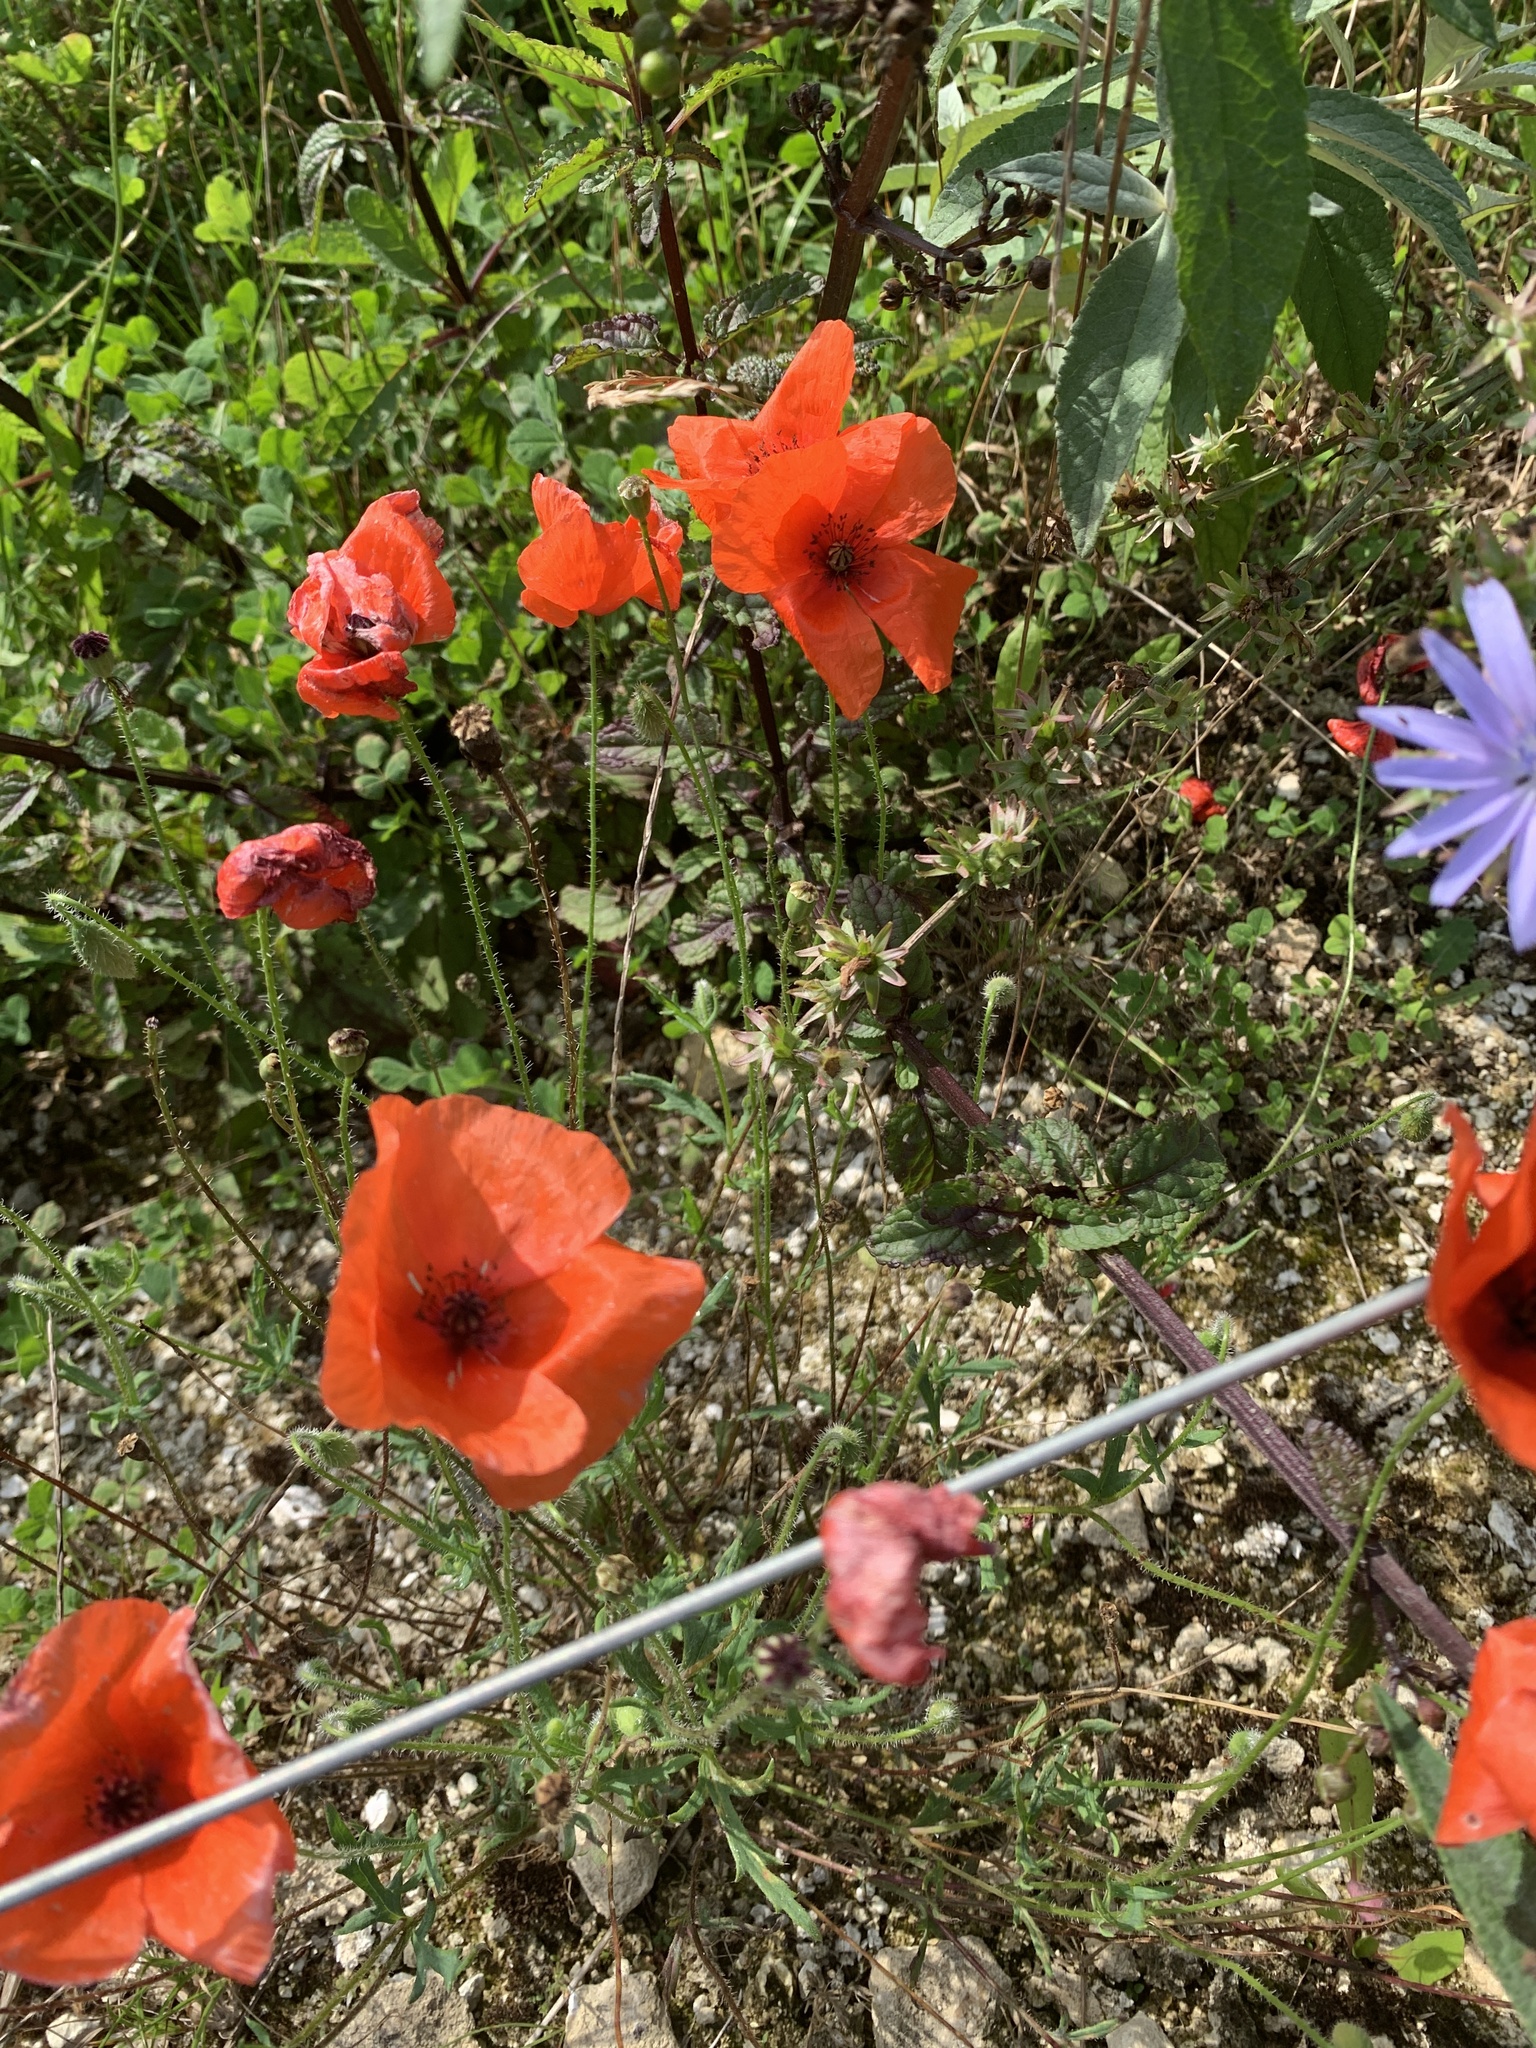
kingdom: Plantae
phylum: Tracheophyta
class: Magnoliopsida
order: Ranunculales
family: Papaveraceae
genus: Papaver
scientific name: Papaver rhoeas
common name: Corn poppy
